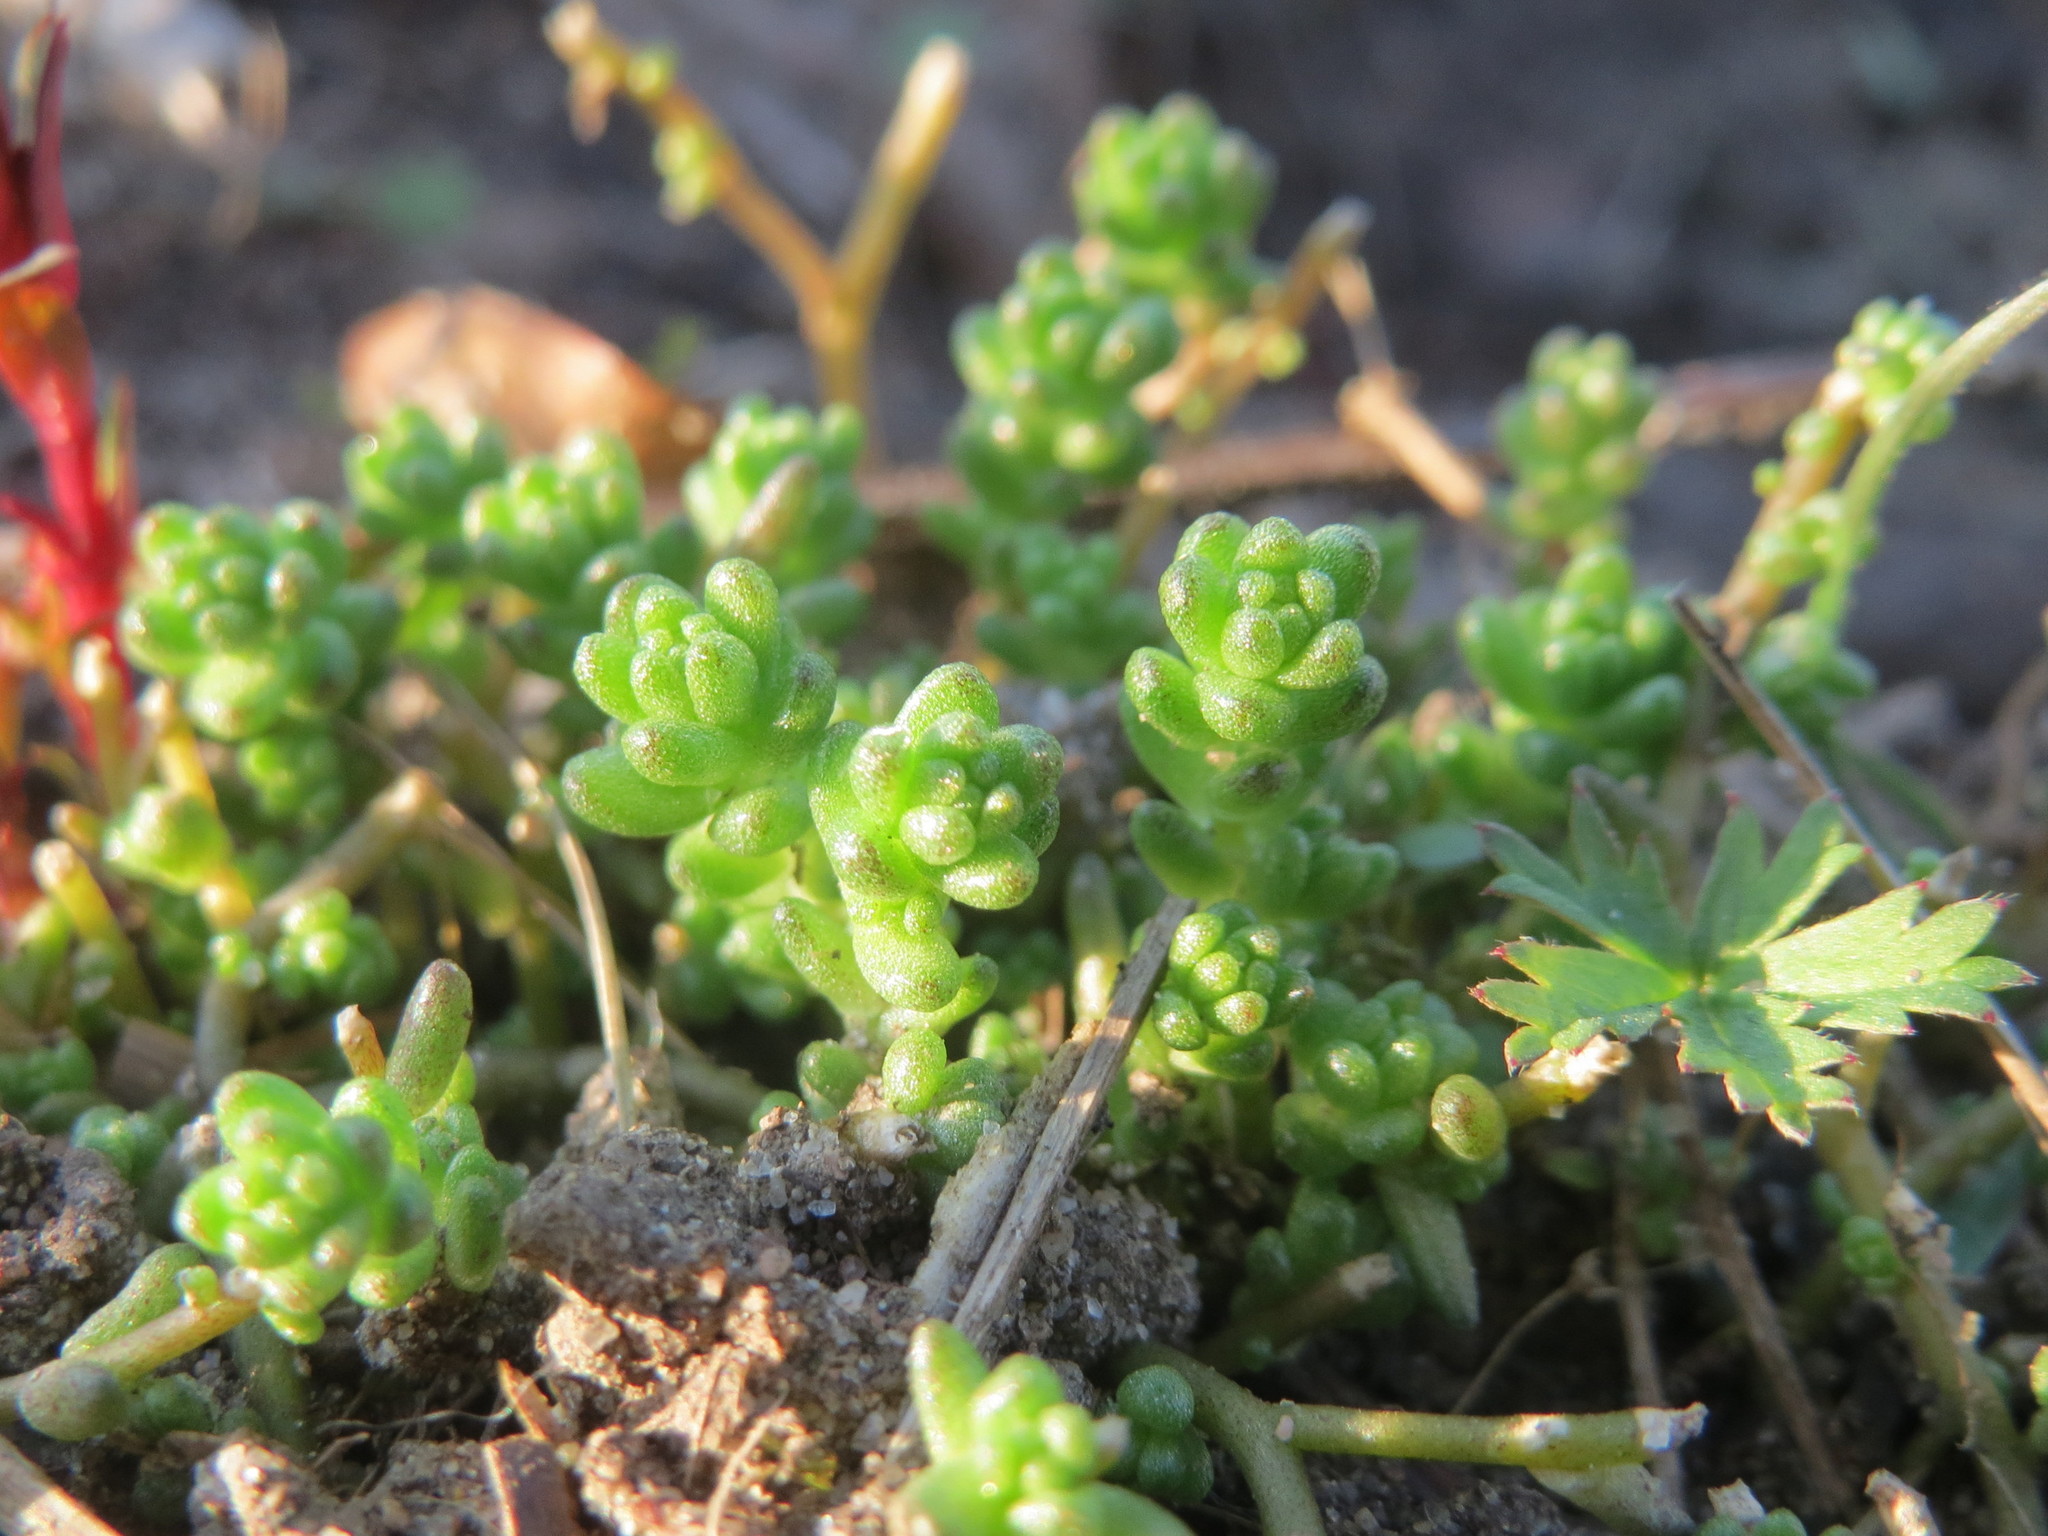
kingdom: Plantae
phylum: Tracheophyta
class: Magnoliopsida
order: Saxifragales
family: Crassulaceae
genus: Sedum
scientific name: Sedum acre
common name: Biting stonecrop
